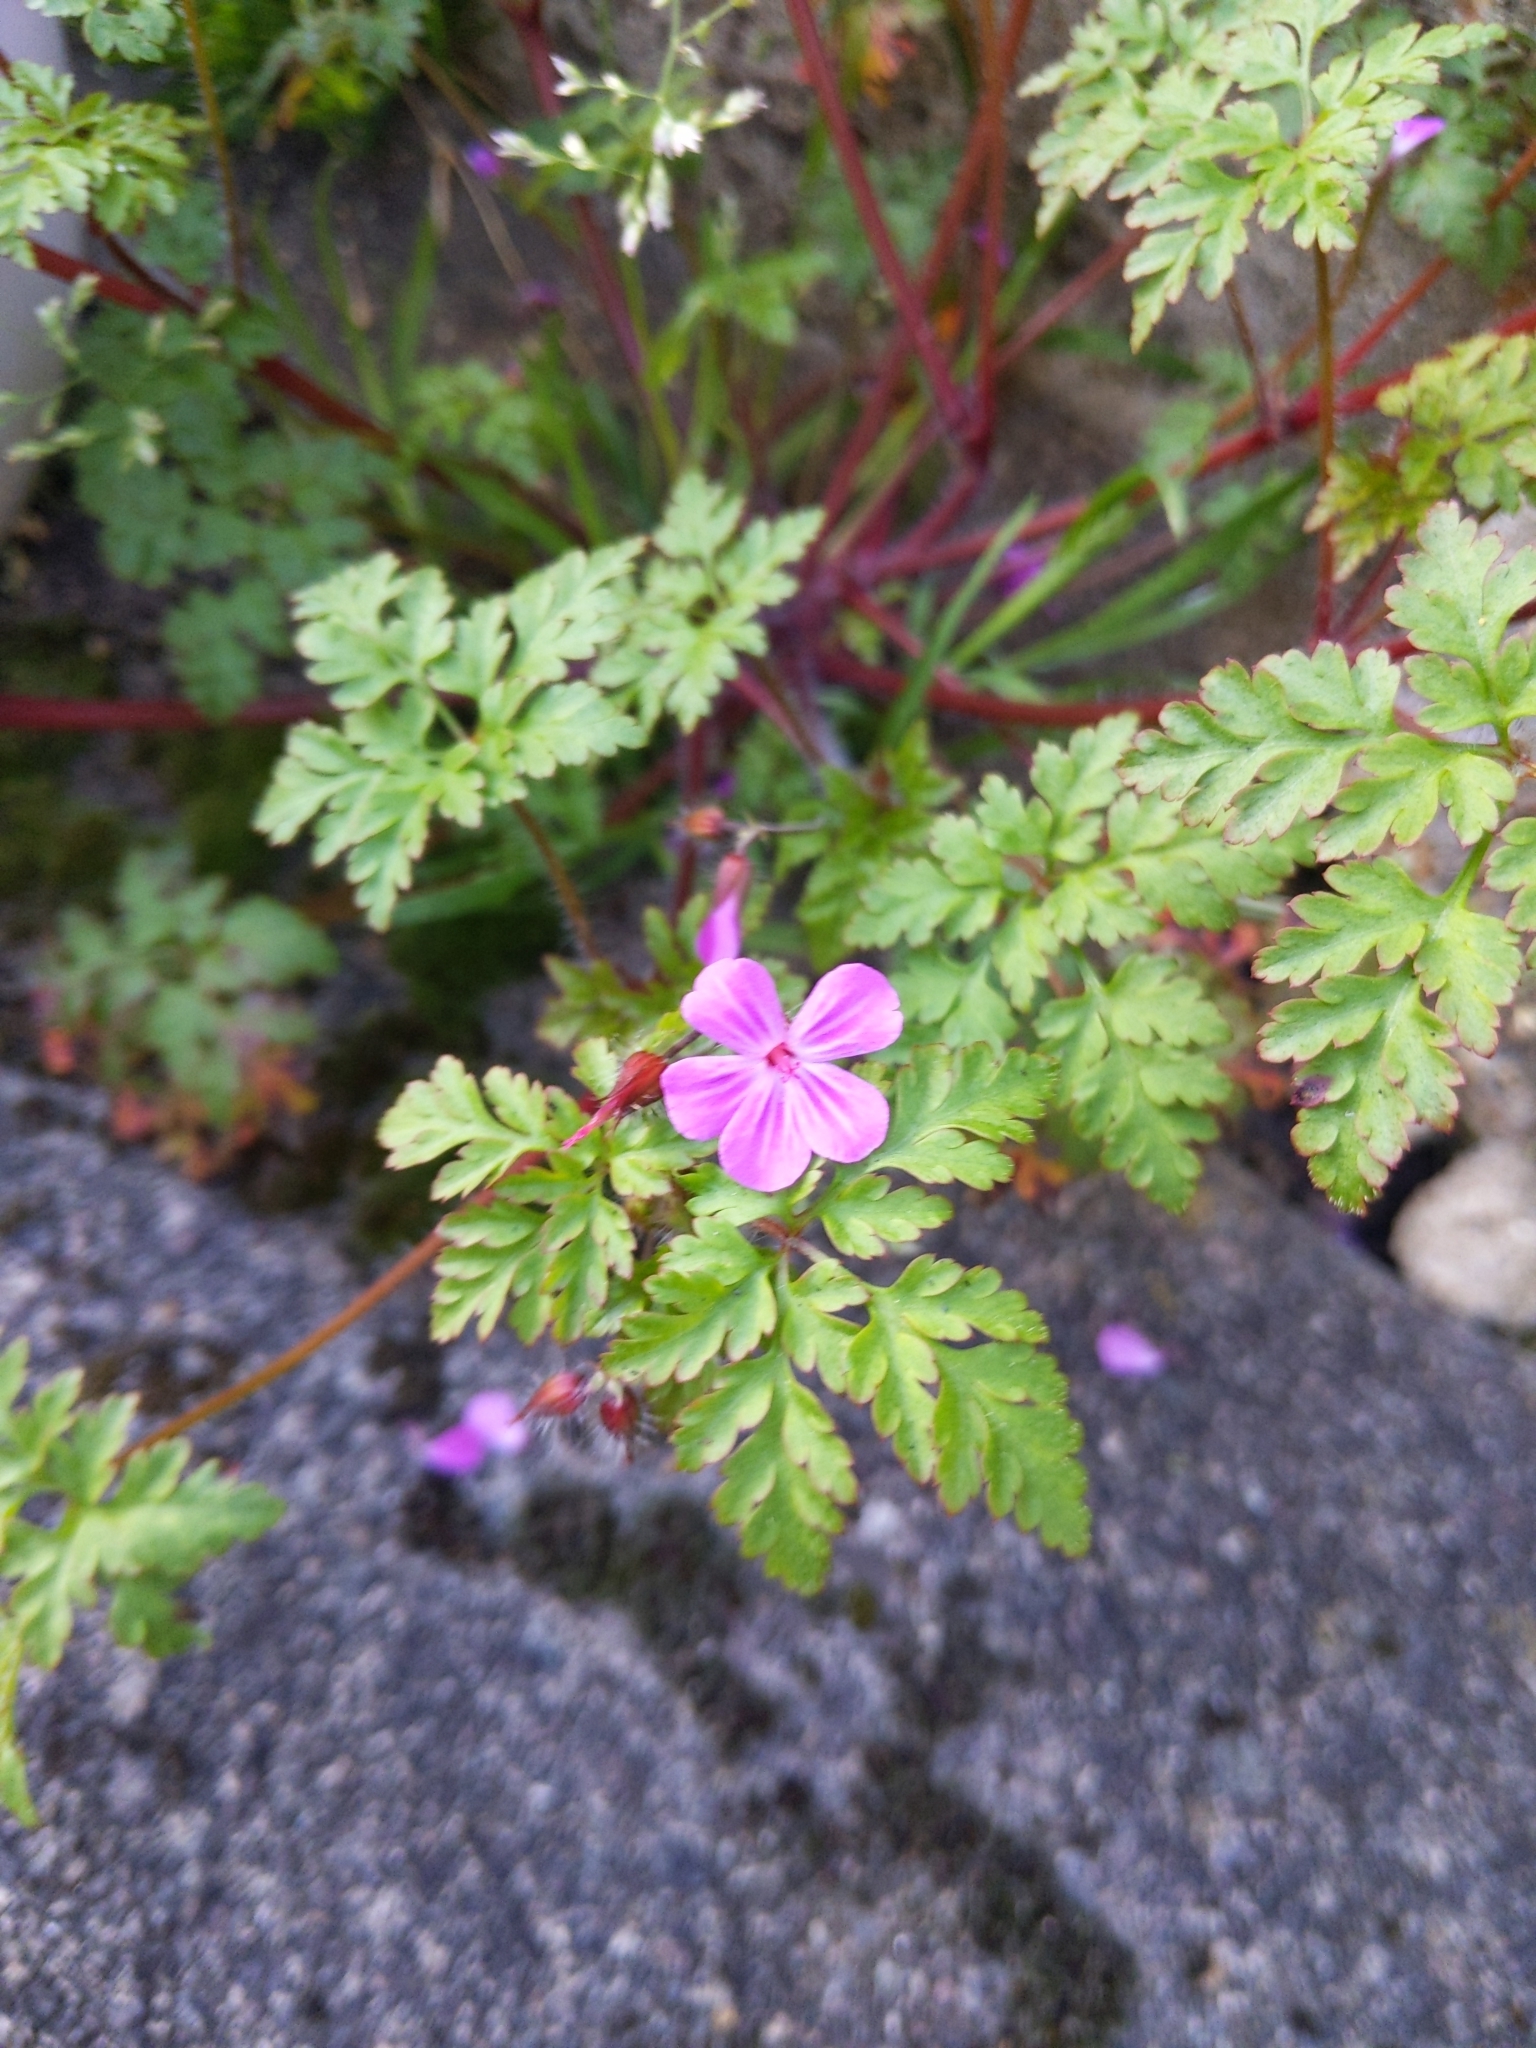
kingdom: Plantae
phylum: Tracheophyta
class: Magnoliopsida
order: Geraniales
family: Geraniaceae
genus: Geranium
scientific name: Geranium robertianum
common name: Herb-robert
